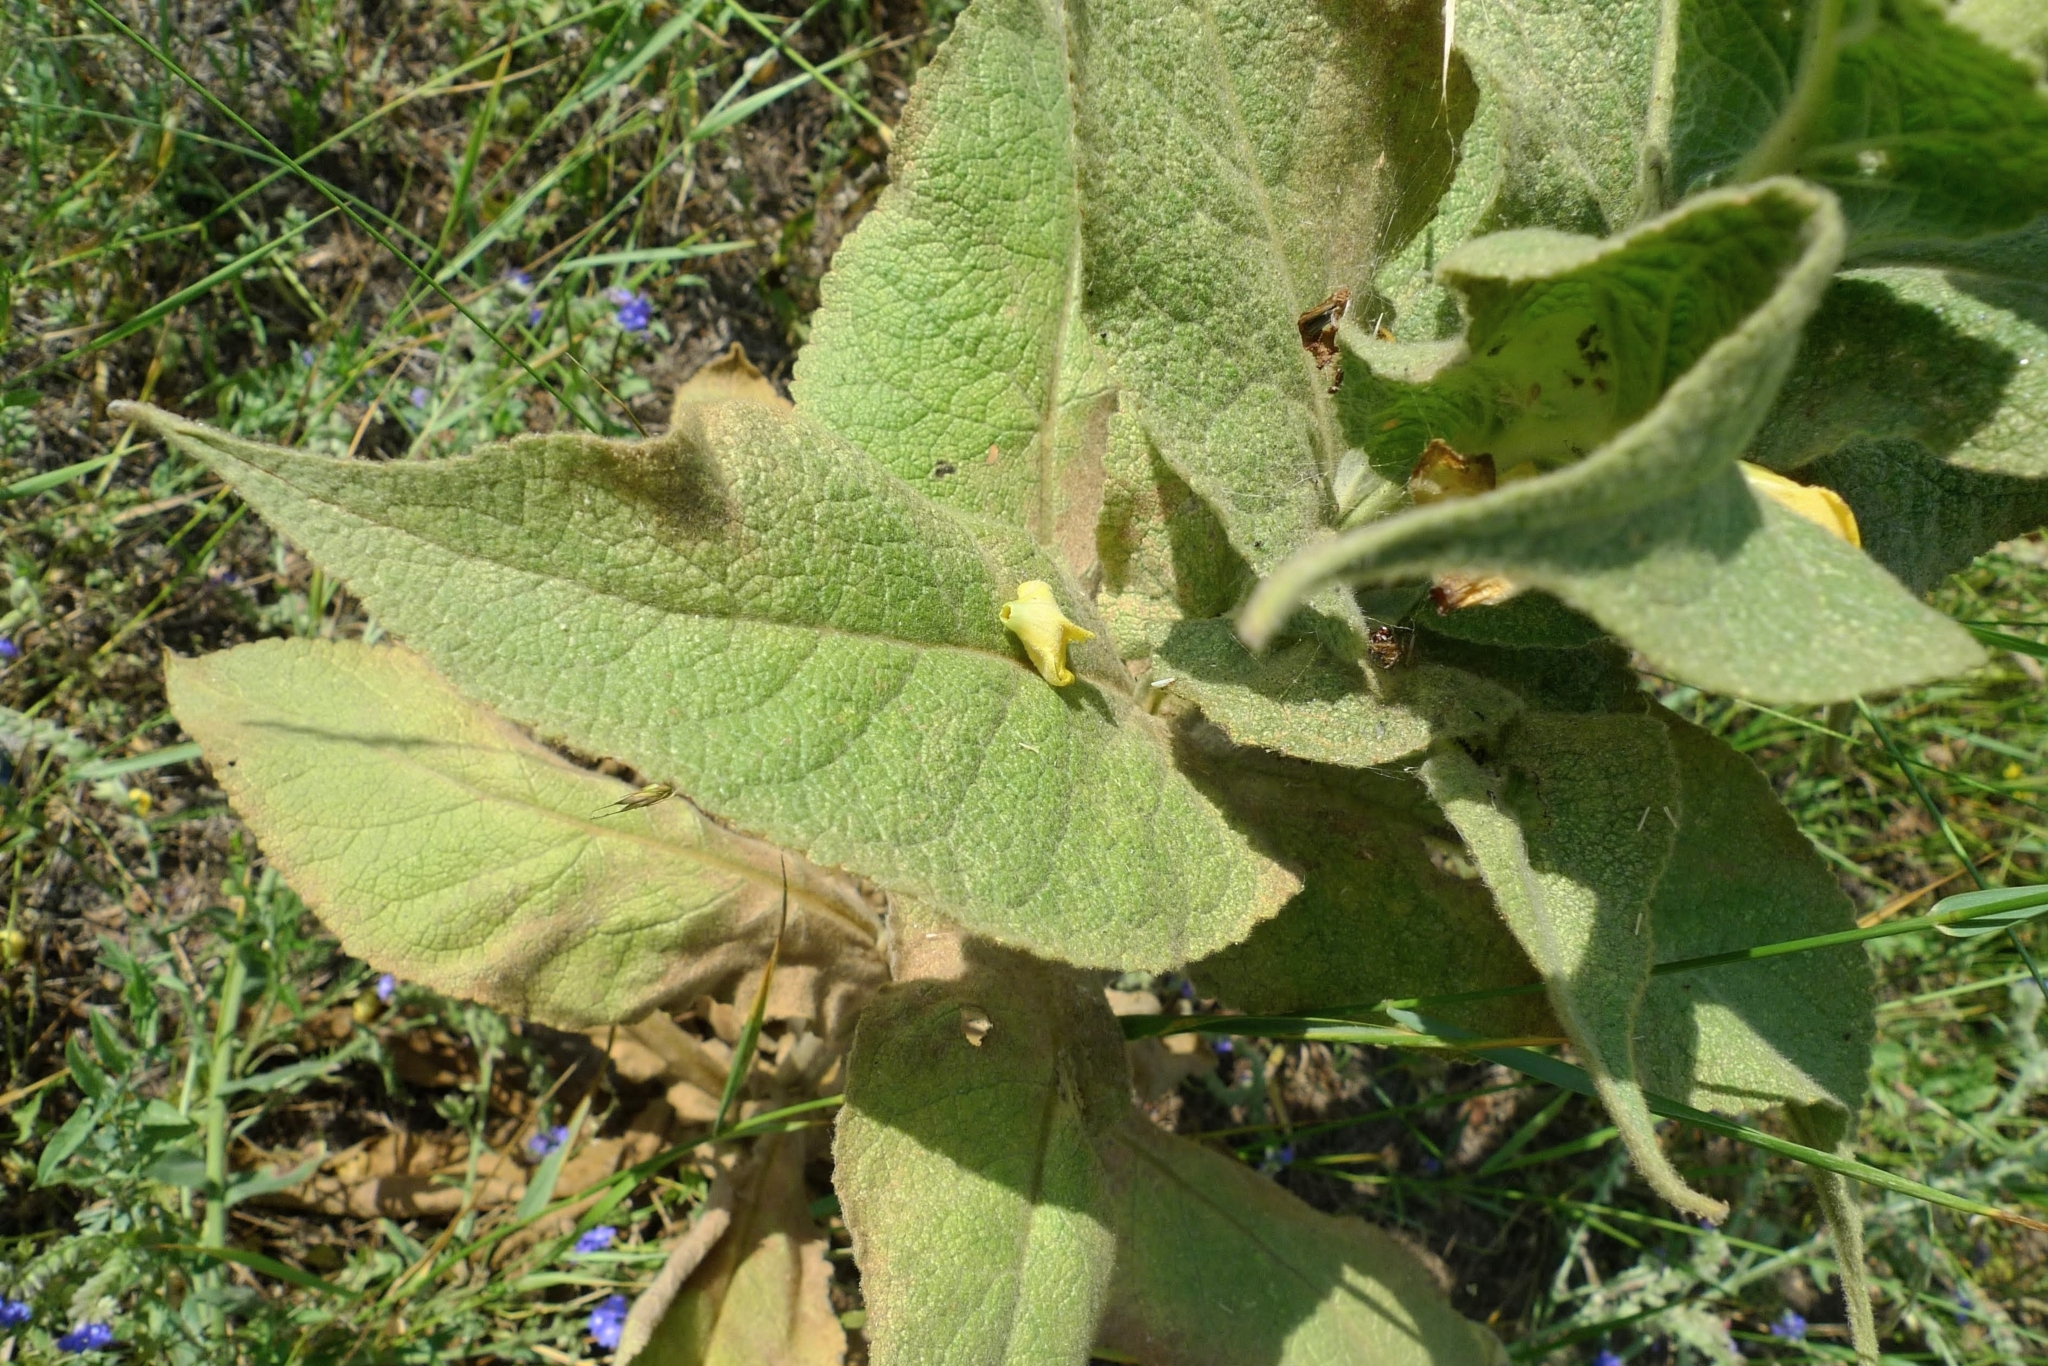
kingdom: Plantae
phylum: Tracheophyta
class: Magnoliopsida
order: Lamiales
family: Scrophulariaceae
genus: Verbascum
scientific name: Verbascum phlomoides
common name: Orange mullein
